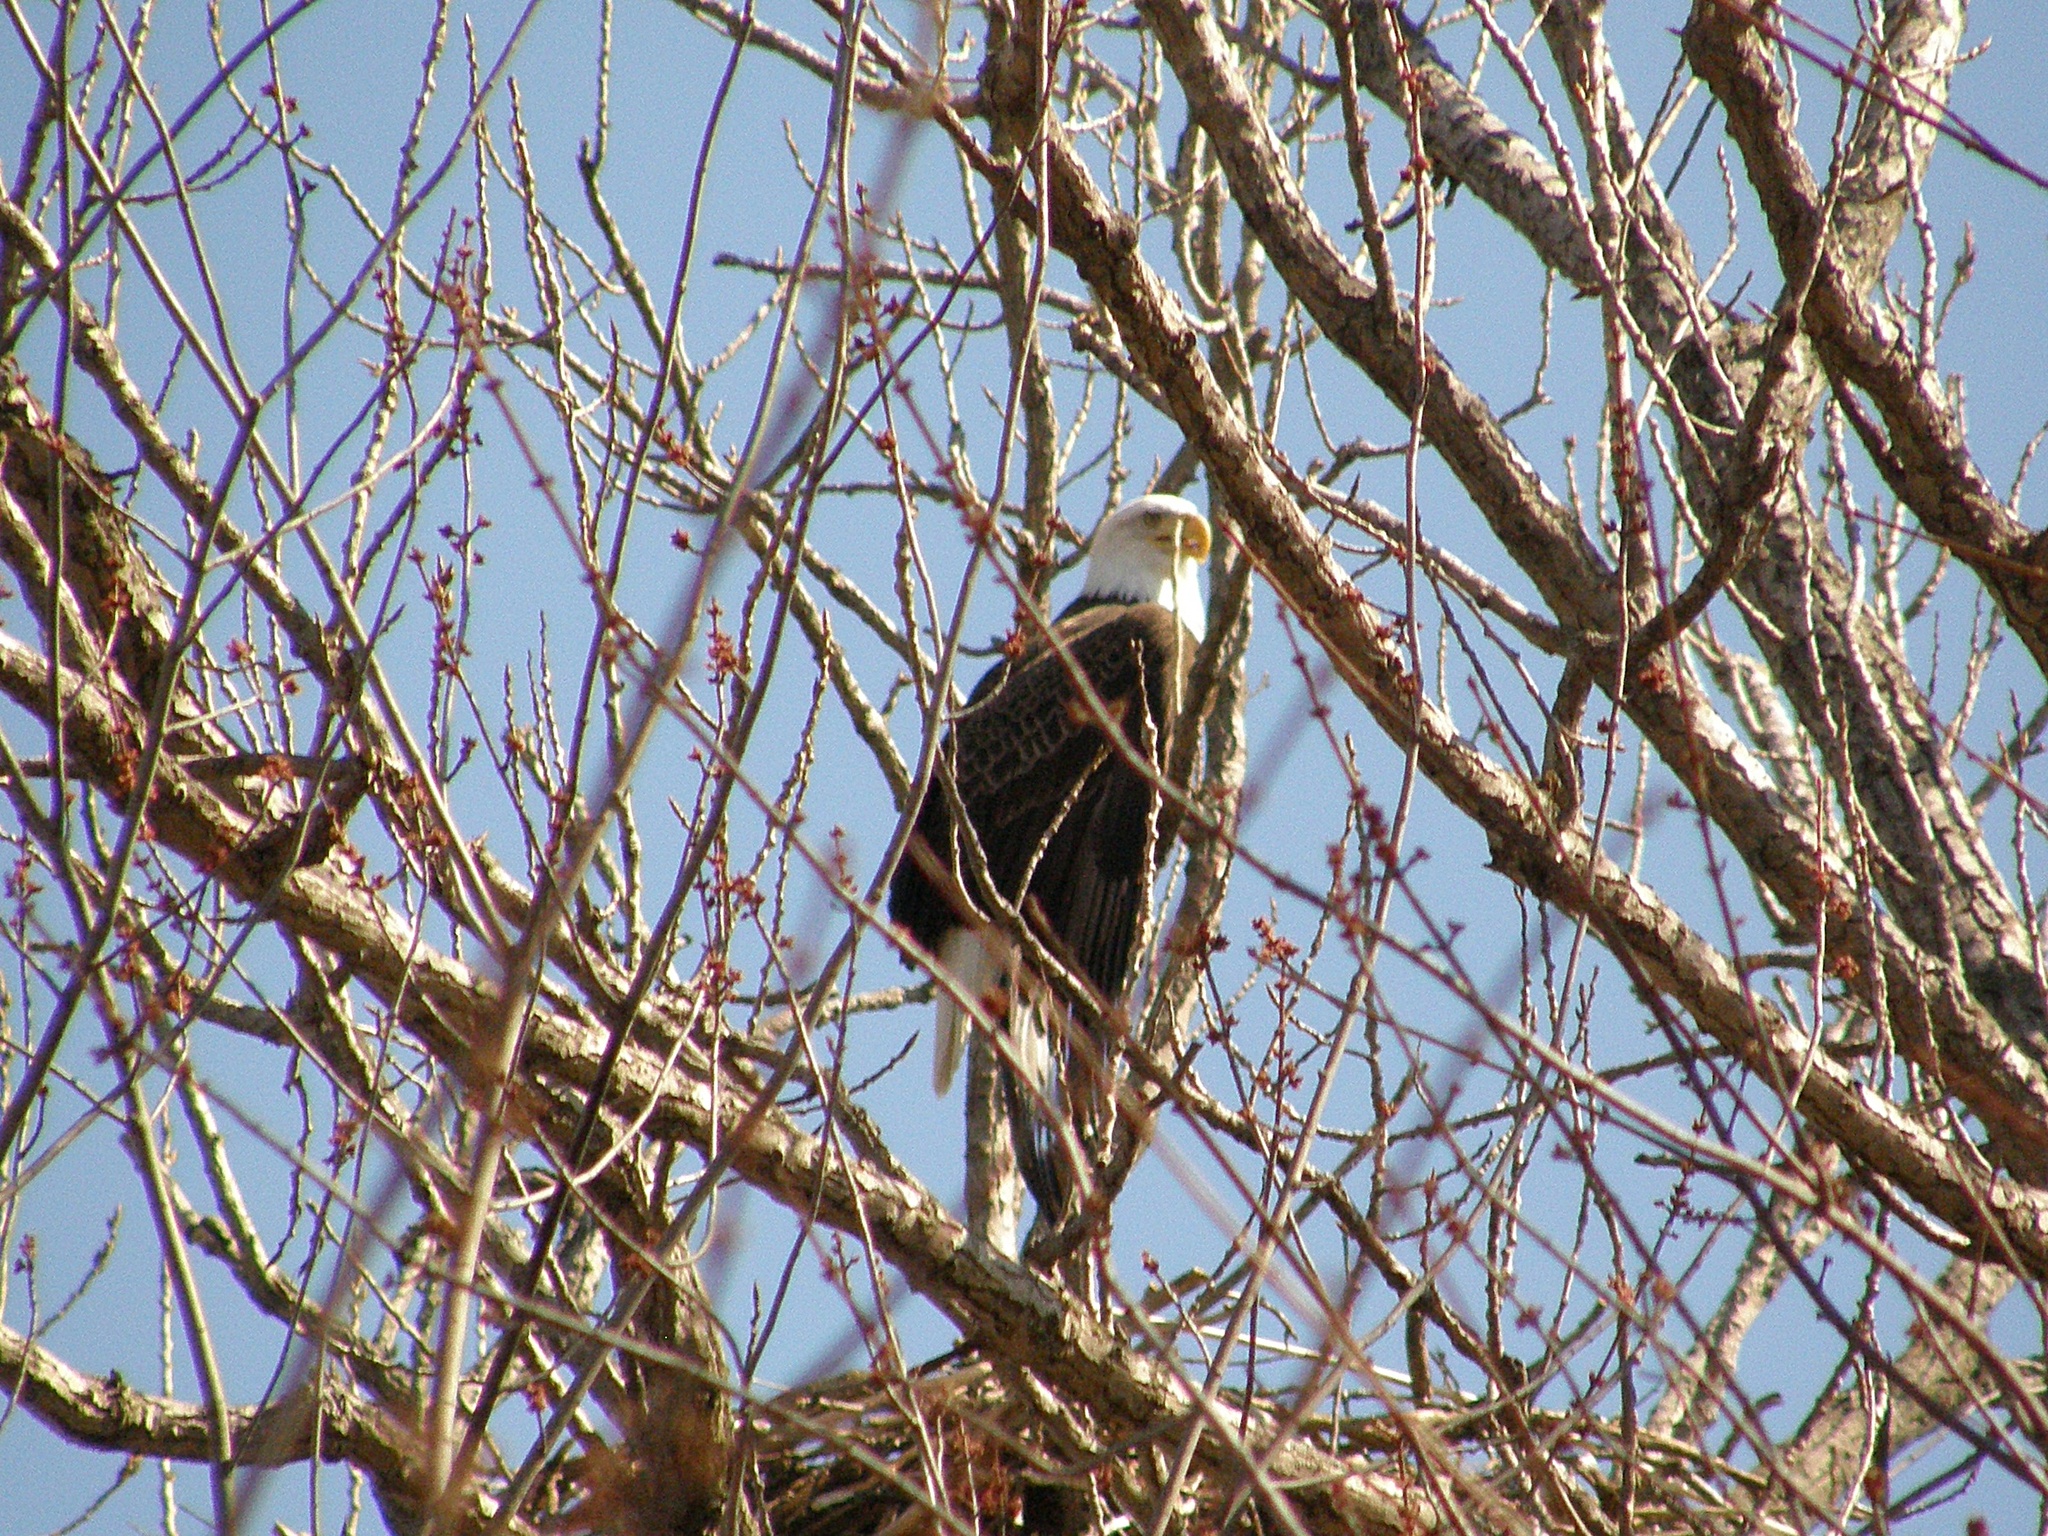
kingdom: Animalia
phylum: Chordata
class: Aves
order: Accipitriformes
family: Accipitridae
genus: Haliaeetus
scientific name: Haliaeetus leucocephalus
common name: Bald eagle
